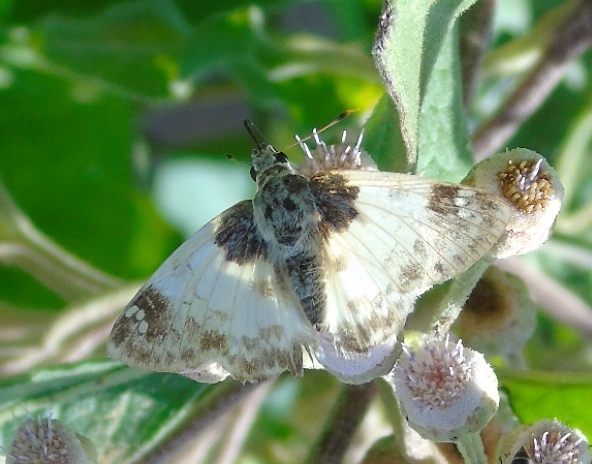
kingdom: Animalia
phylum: Arthropoda
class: Insecta
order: Lepidoptera
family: Hesperiidae
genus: Polyctor
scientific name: Polyctor cleta
